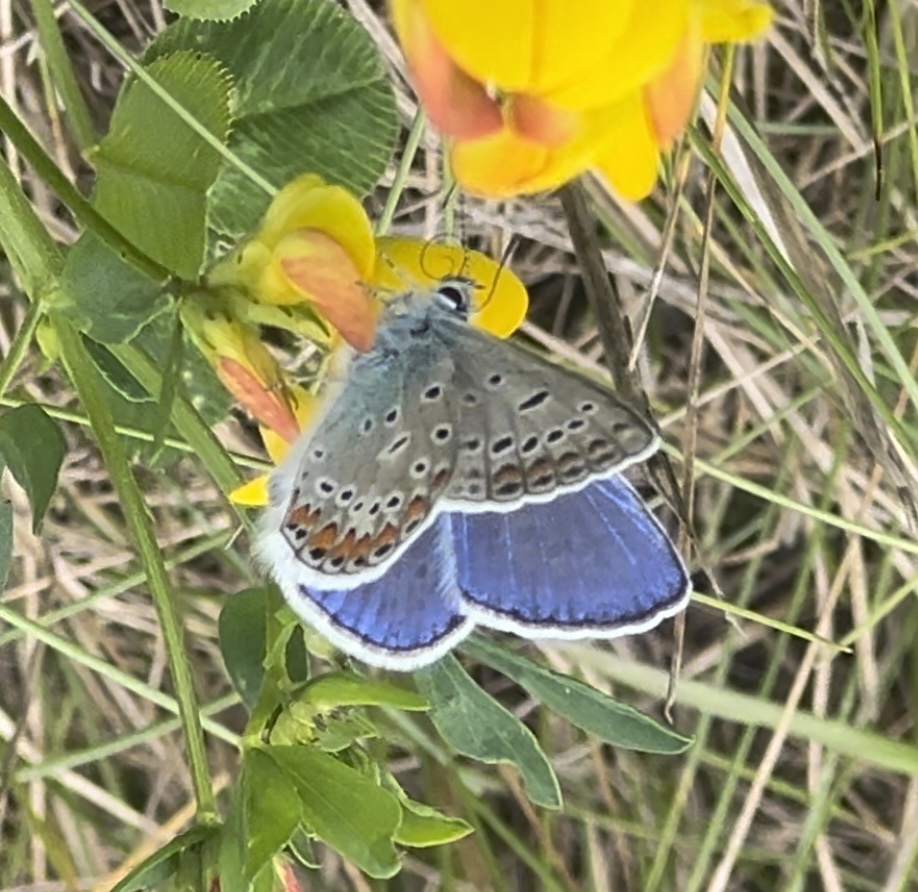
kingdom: Animalia
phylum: Arthropoda
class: Insecta
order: Lepidoptera
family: Lycaenidae
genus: Polyommatus
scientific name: Polyommatus icarus
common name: Common blue
